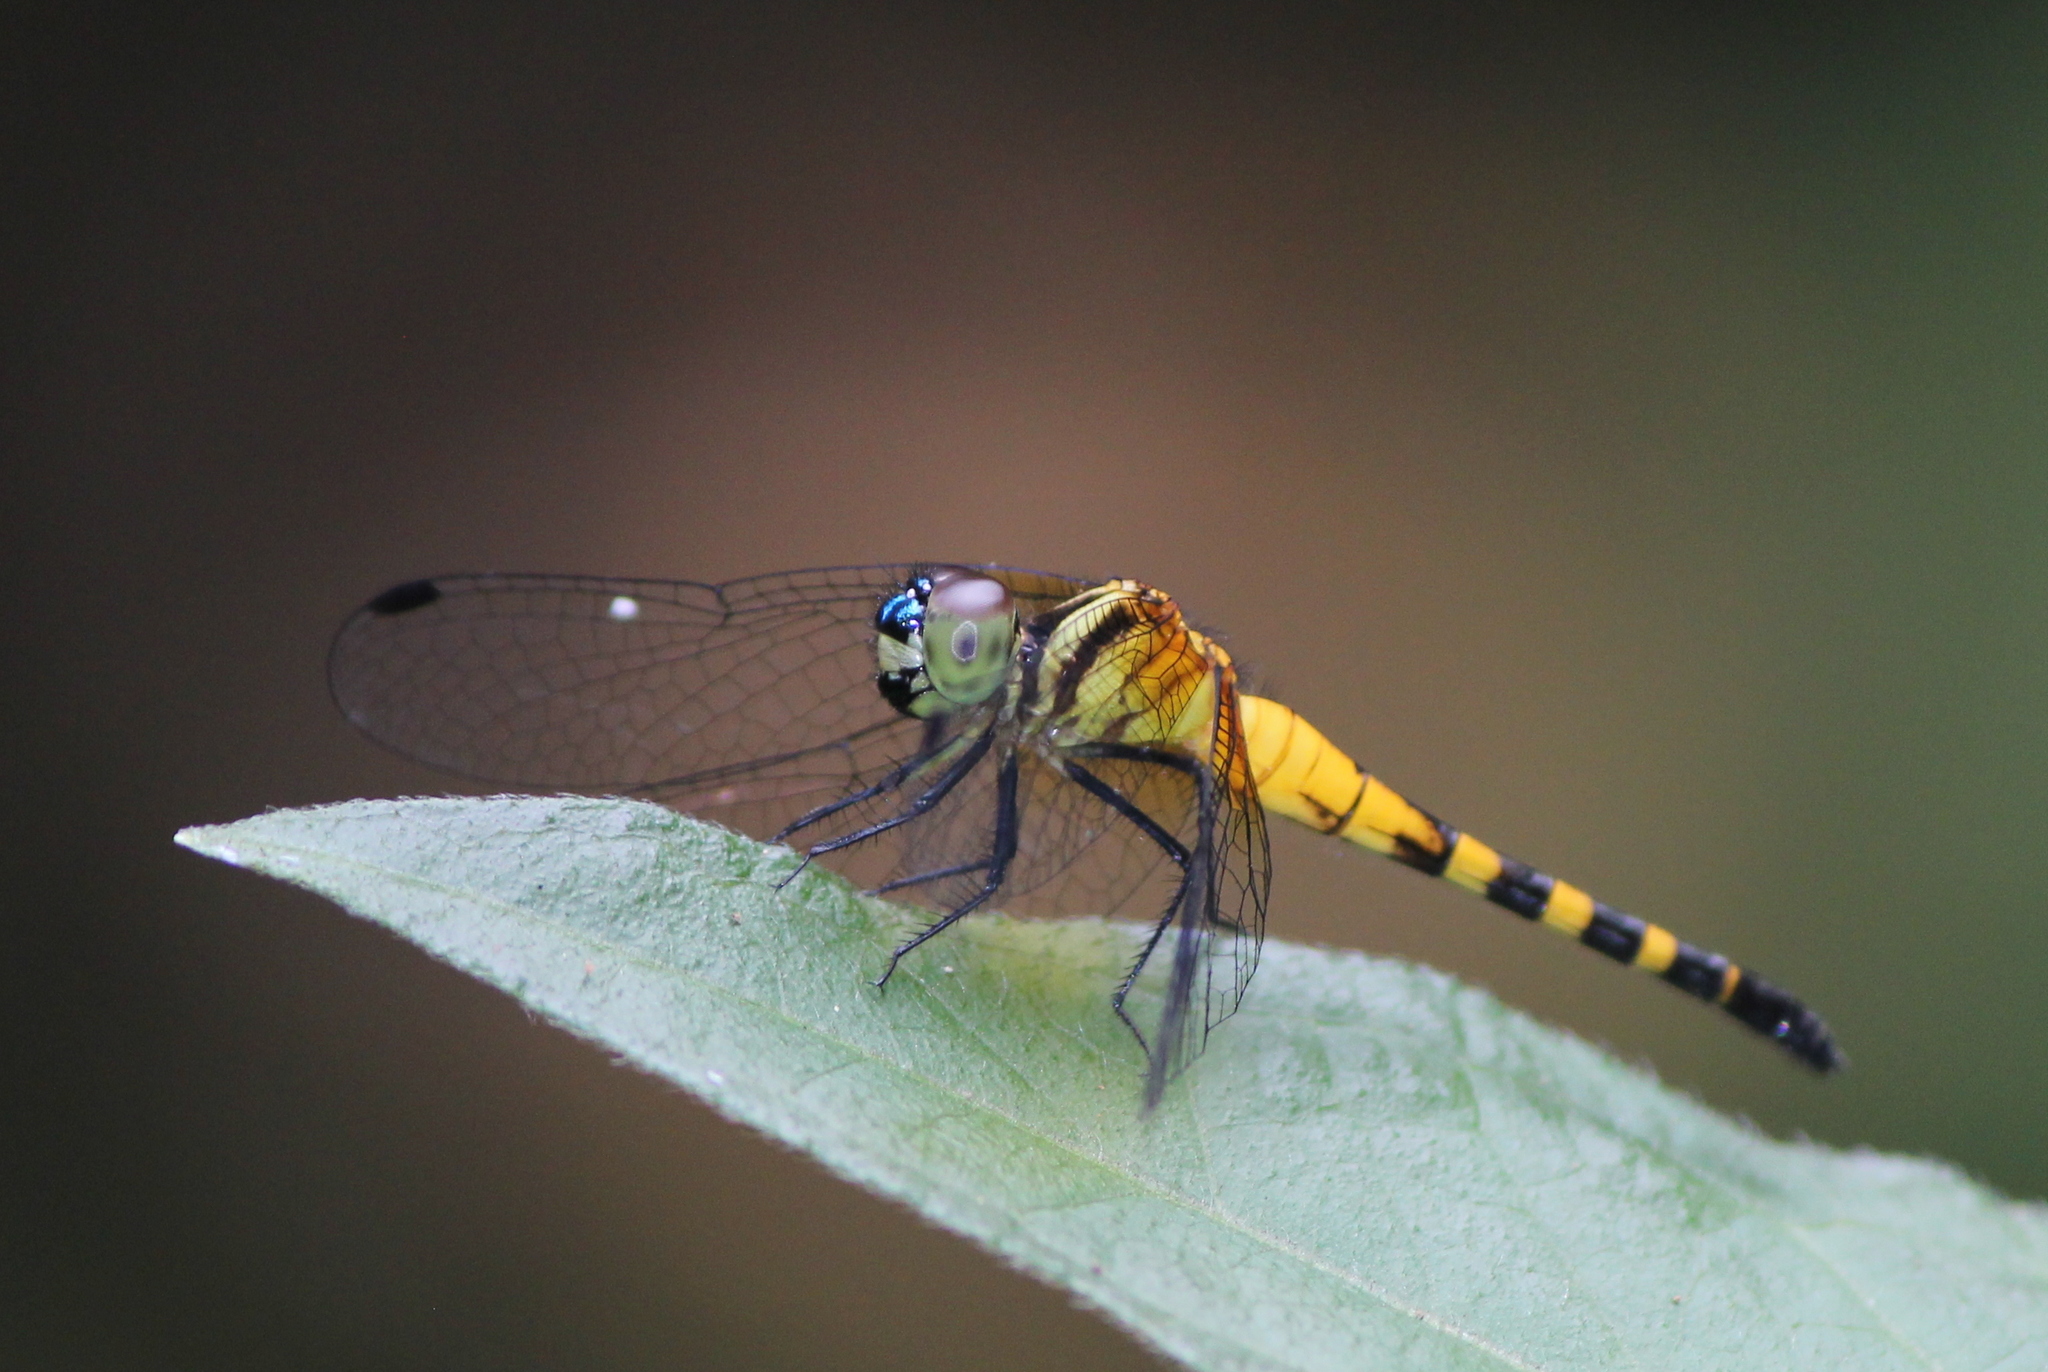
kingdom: Animalia
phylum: Arthropoda
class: Insecta
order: Odonata
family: Libellulidae
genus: Epithemis
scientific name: Epithemis mariae
